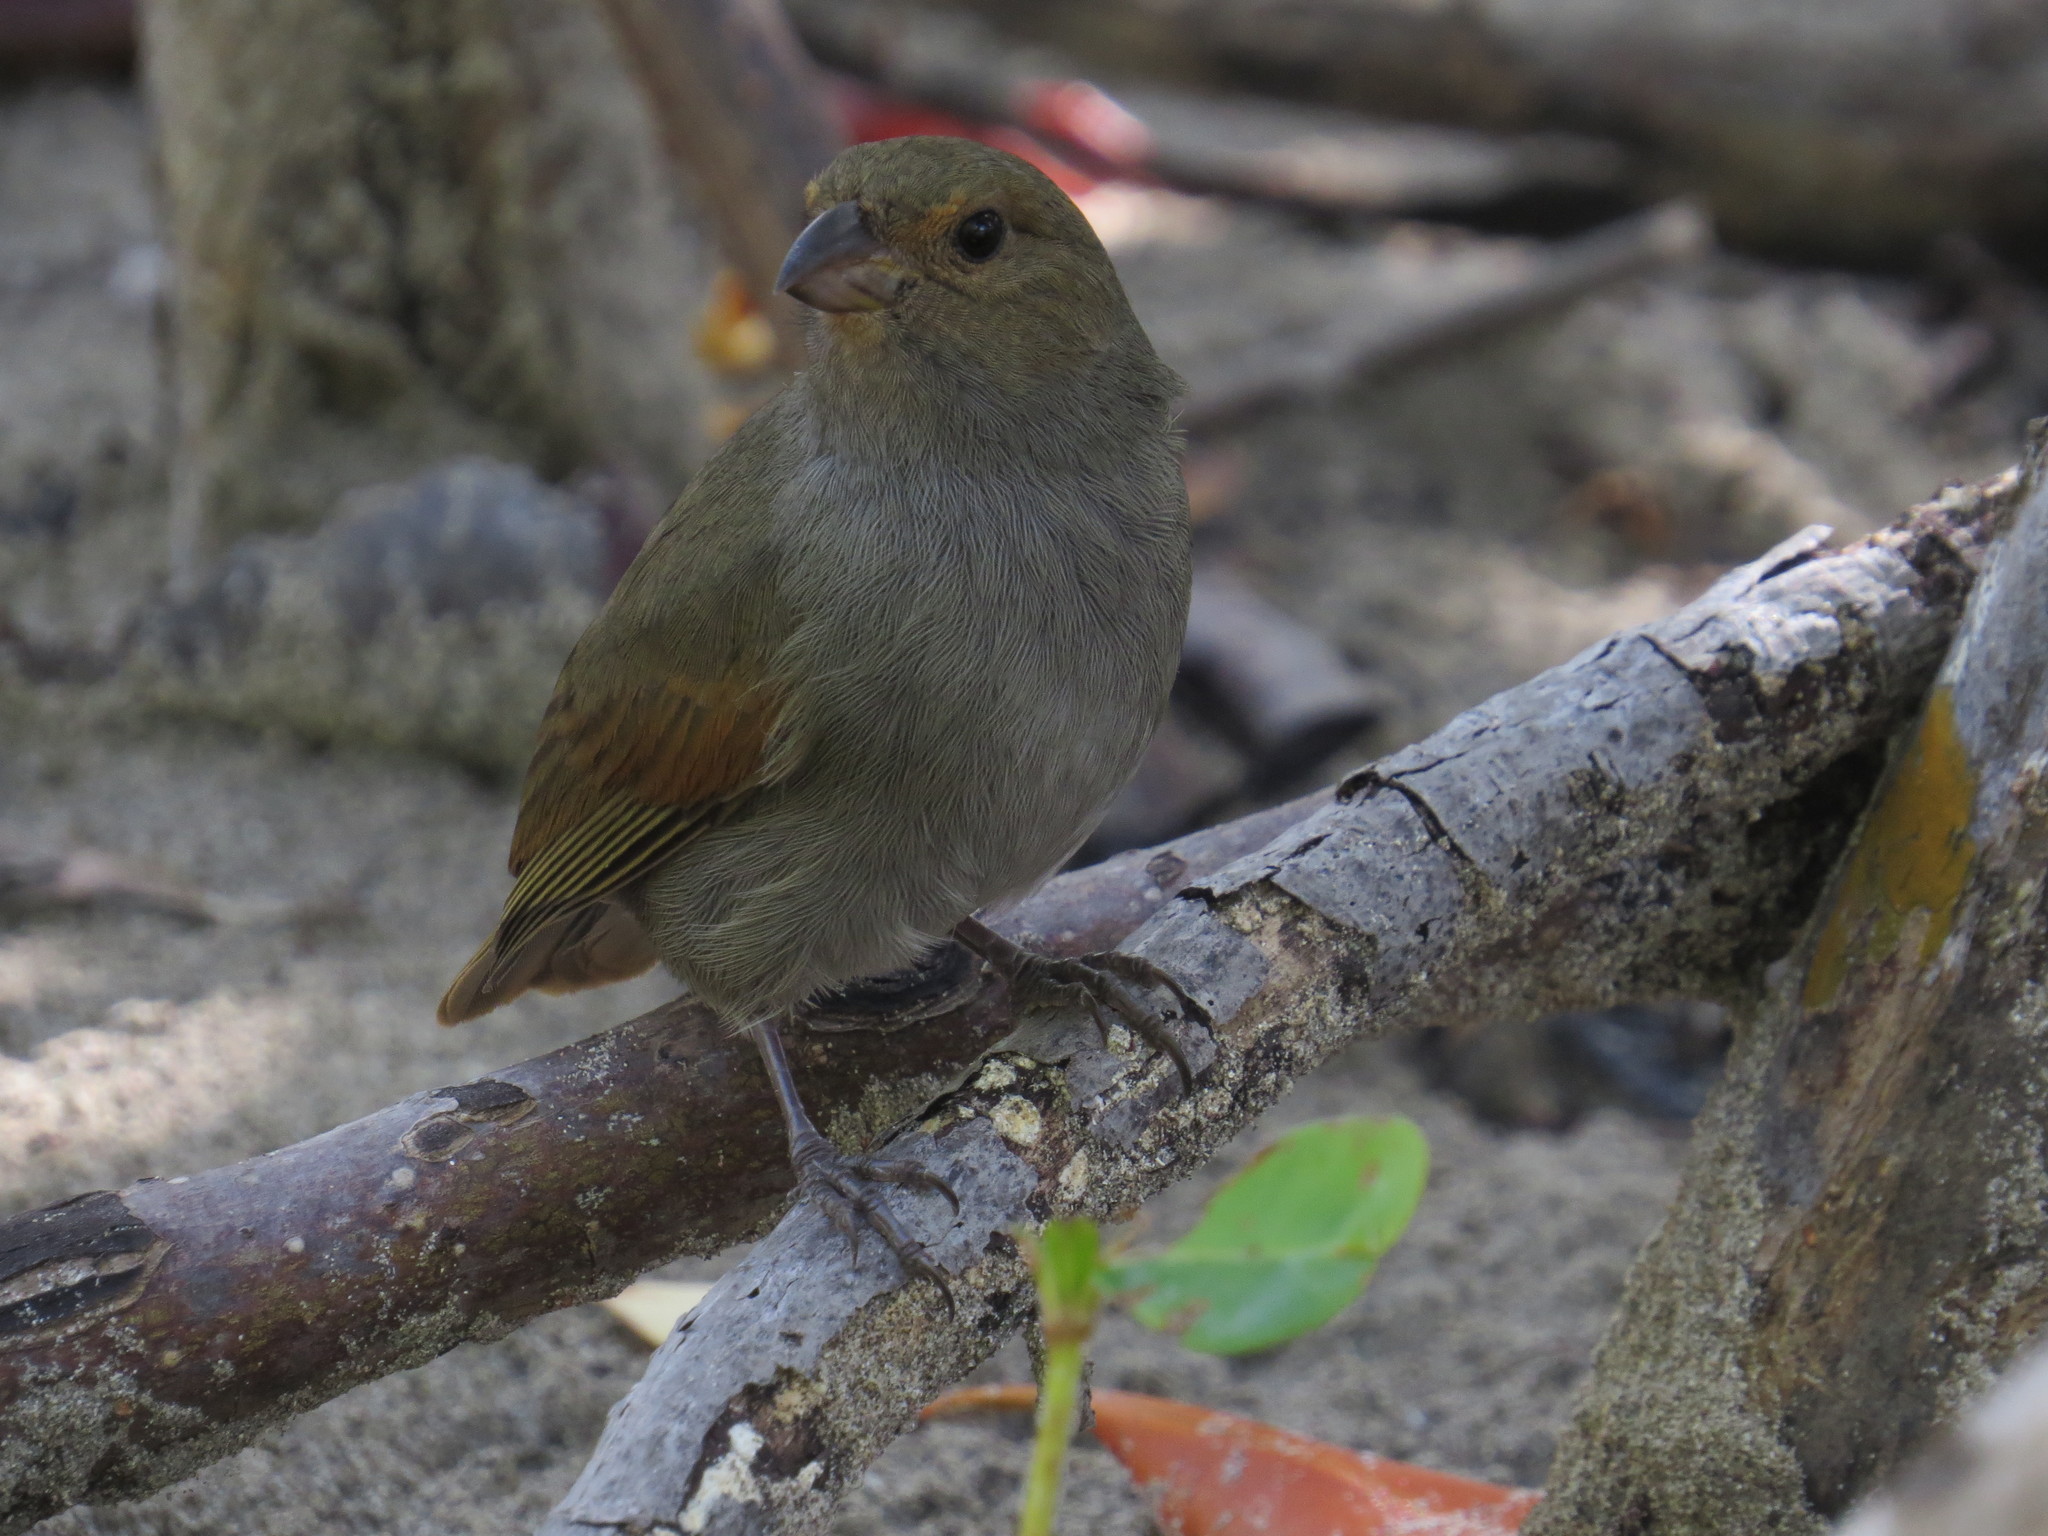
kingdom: Animalia
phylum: Chordata
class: Aves
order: Passeriformes
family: Thraupidae
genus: Loxigilla
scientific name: Loxigilla noctis
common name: Lesser antillean bullfinch
